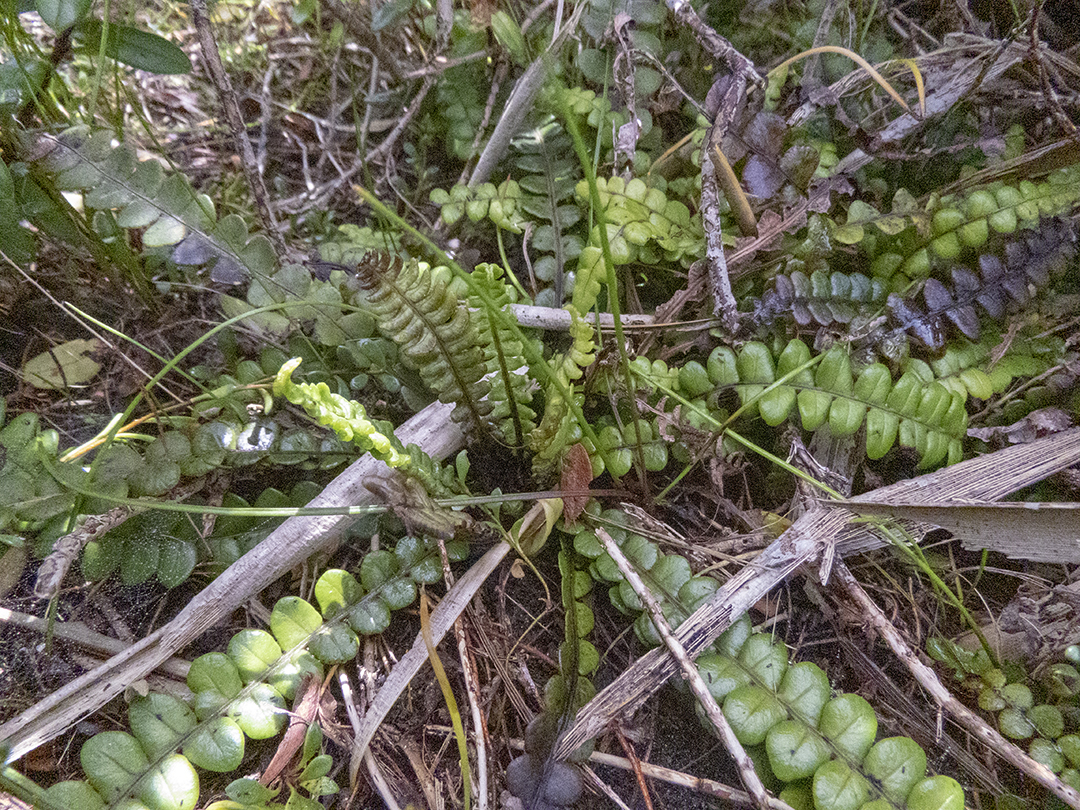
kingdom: Plantae
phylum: Tracheophyta
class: Polypodiopsida
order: Polypodiales
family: Blechnaceae
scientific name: Blechnaceae
